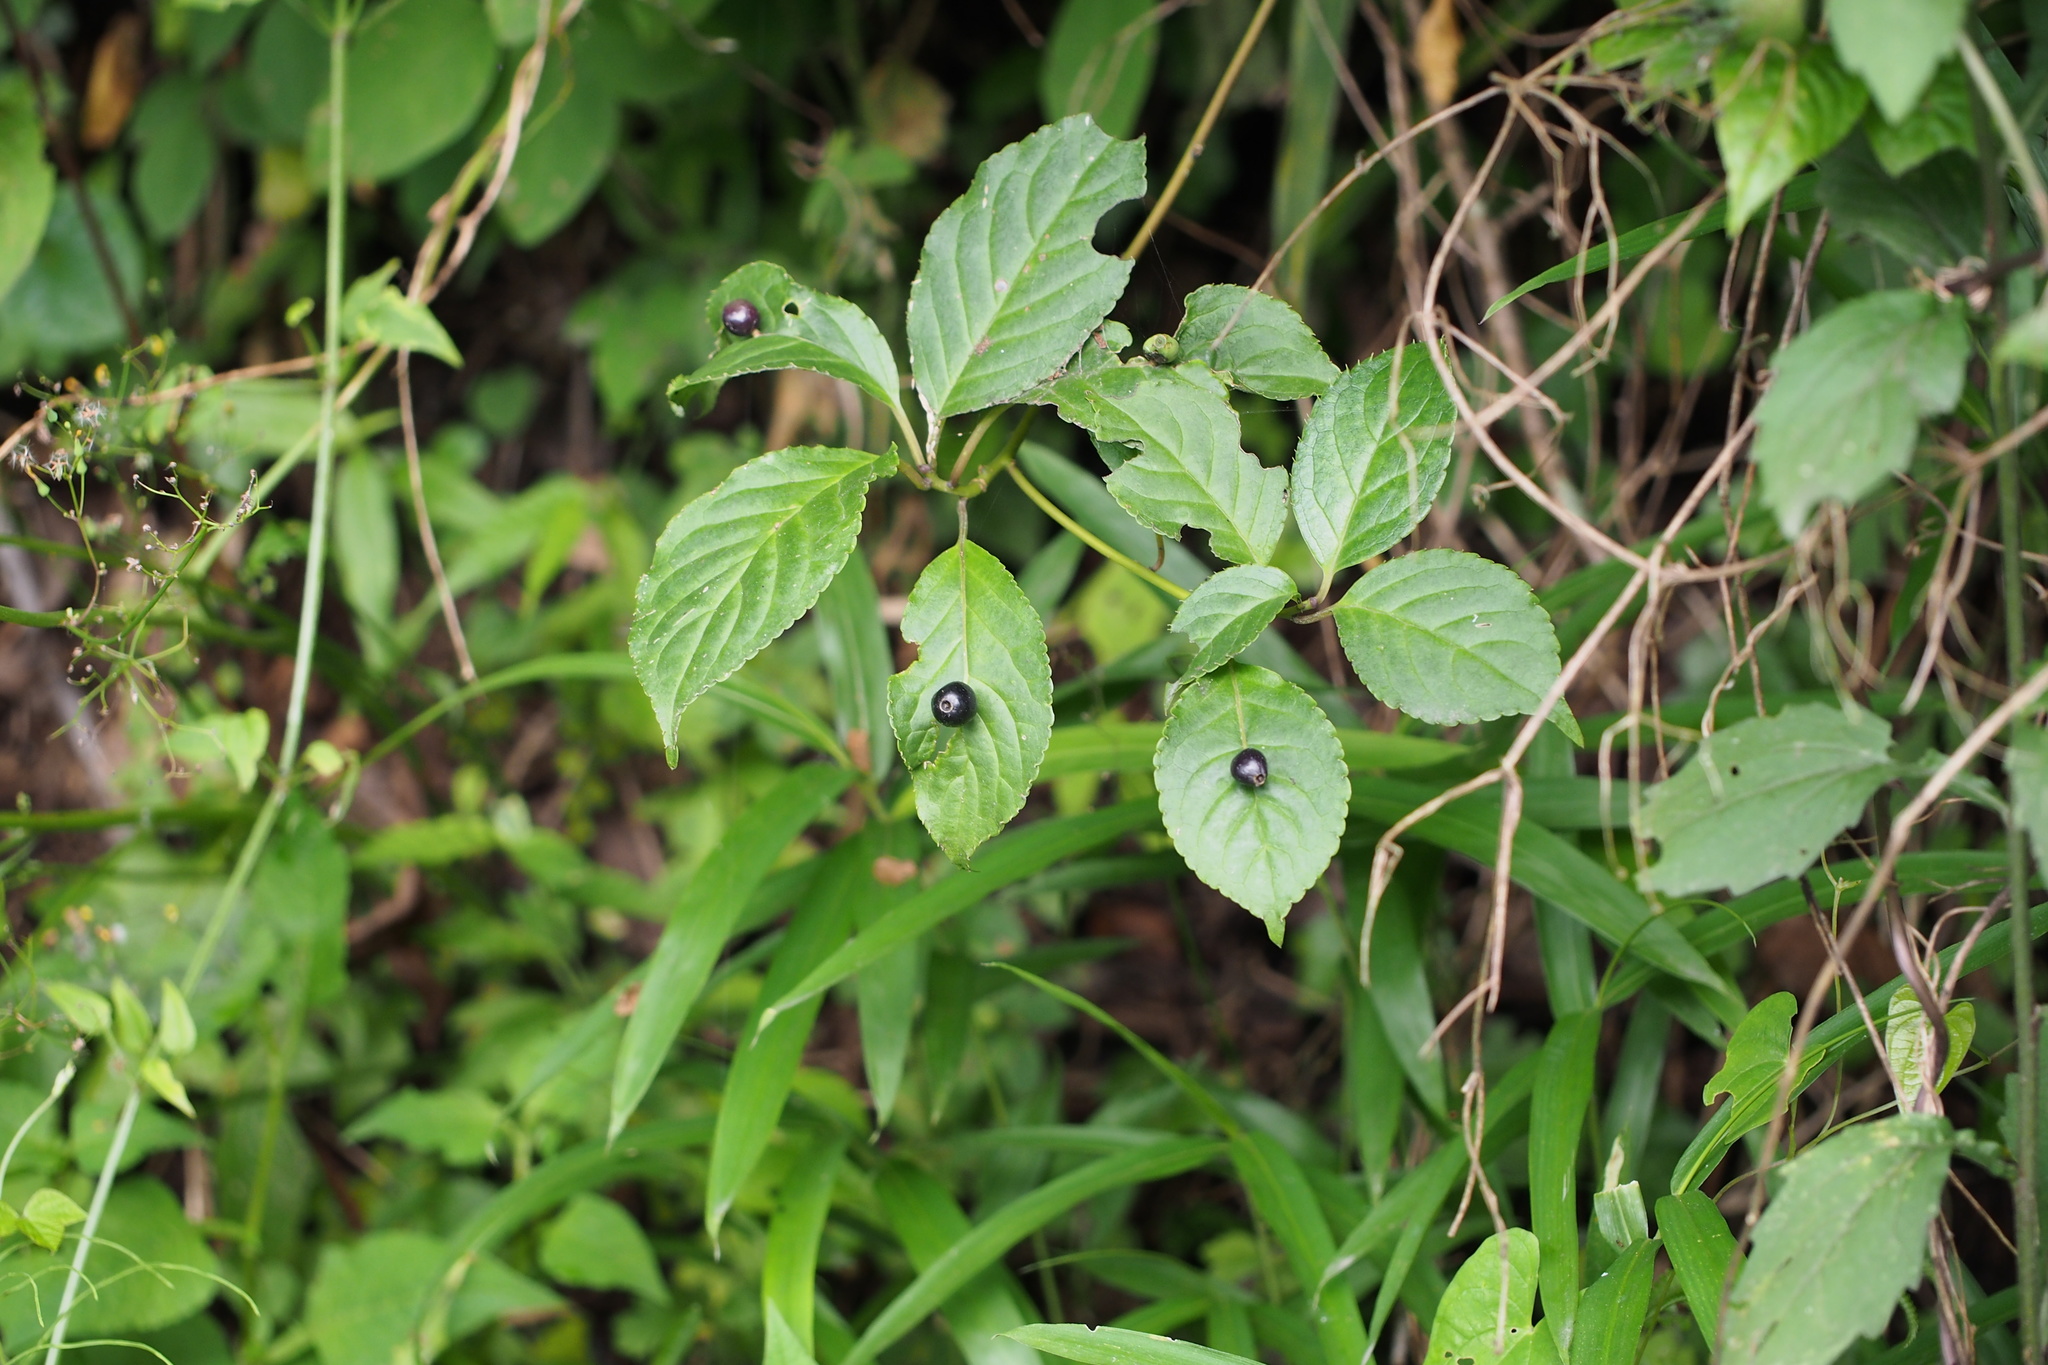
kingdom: Plantae
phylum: Tracheophyta
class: Magnoliopsida
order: Aquifoliales
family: Helwingiaceae
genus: Helwingia
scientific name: Helwingia japonica
